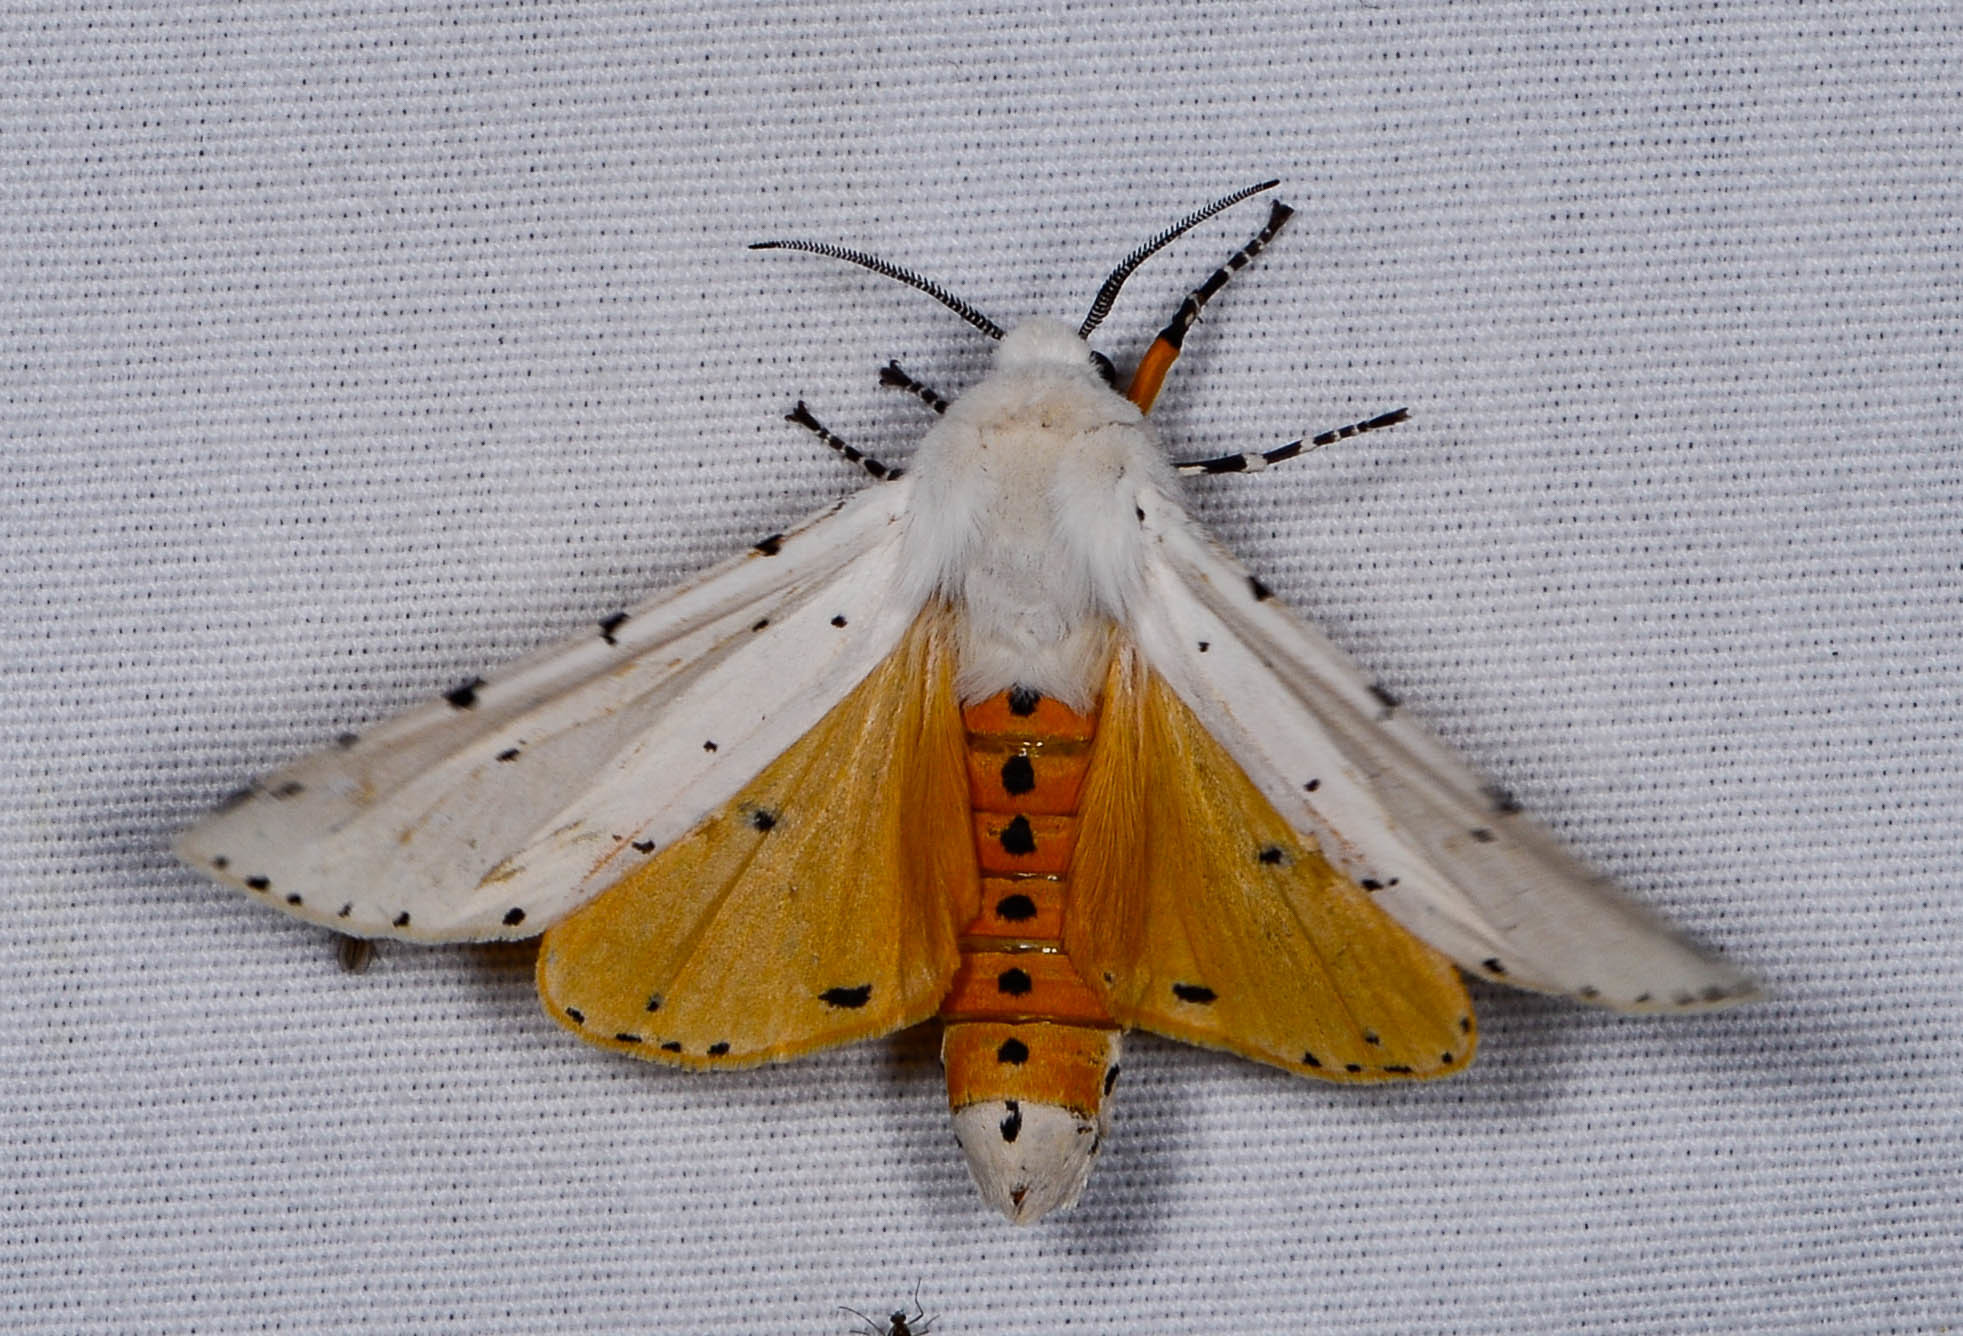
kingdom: Animalia
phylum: Arthropoda
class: Insecta
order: Lepidoptera
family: Erebidae
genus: Estigmene
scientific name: Estigmene acrea
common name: Salt marsh moth
